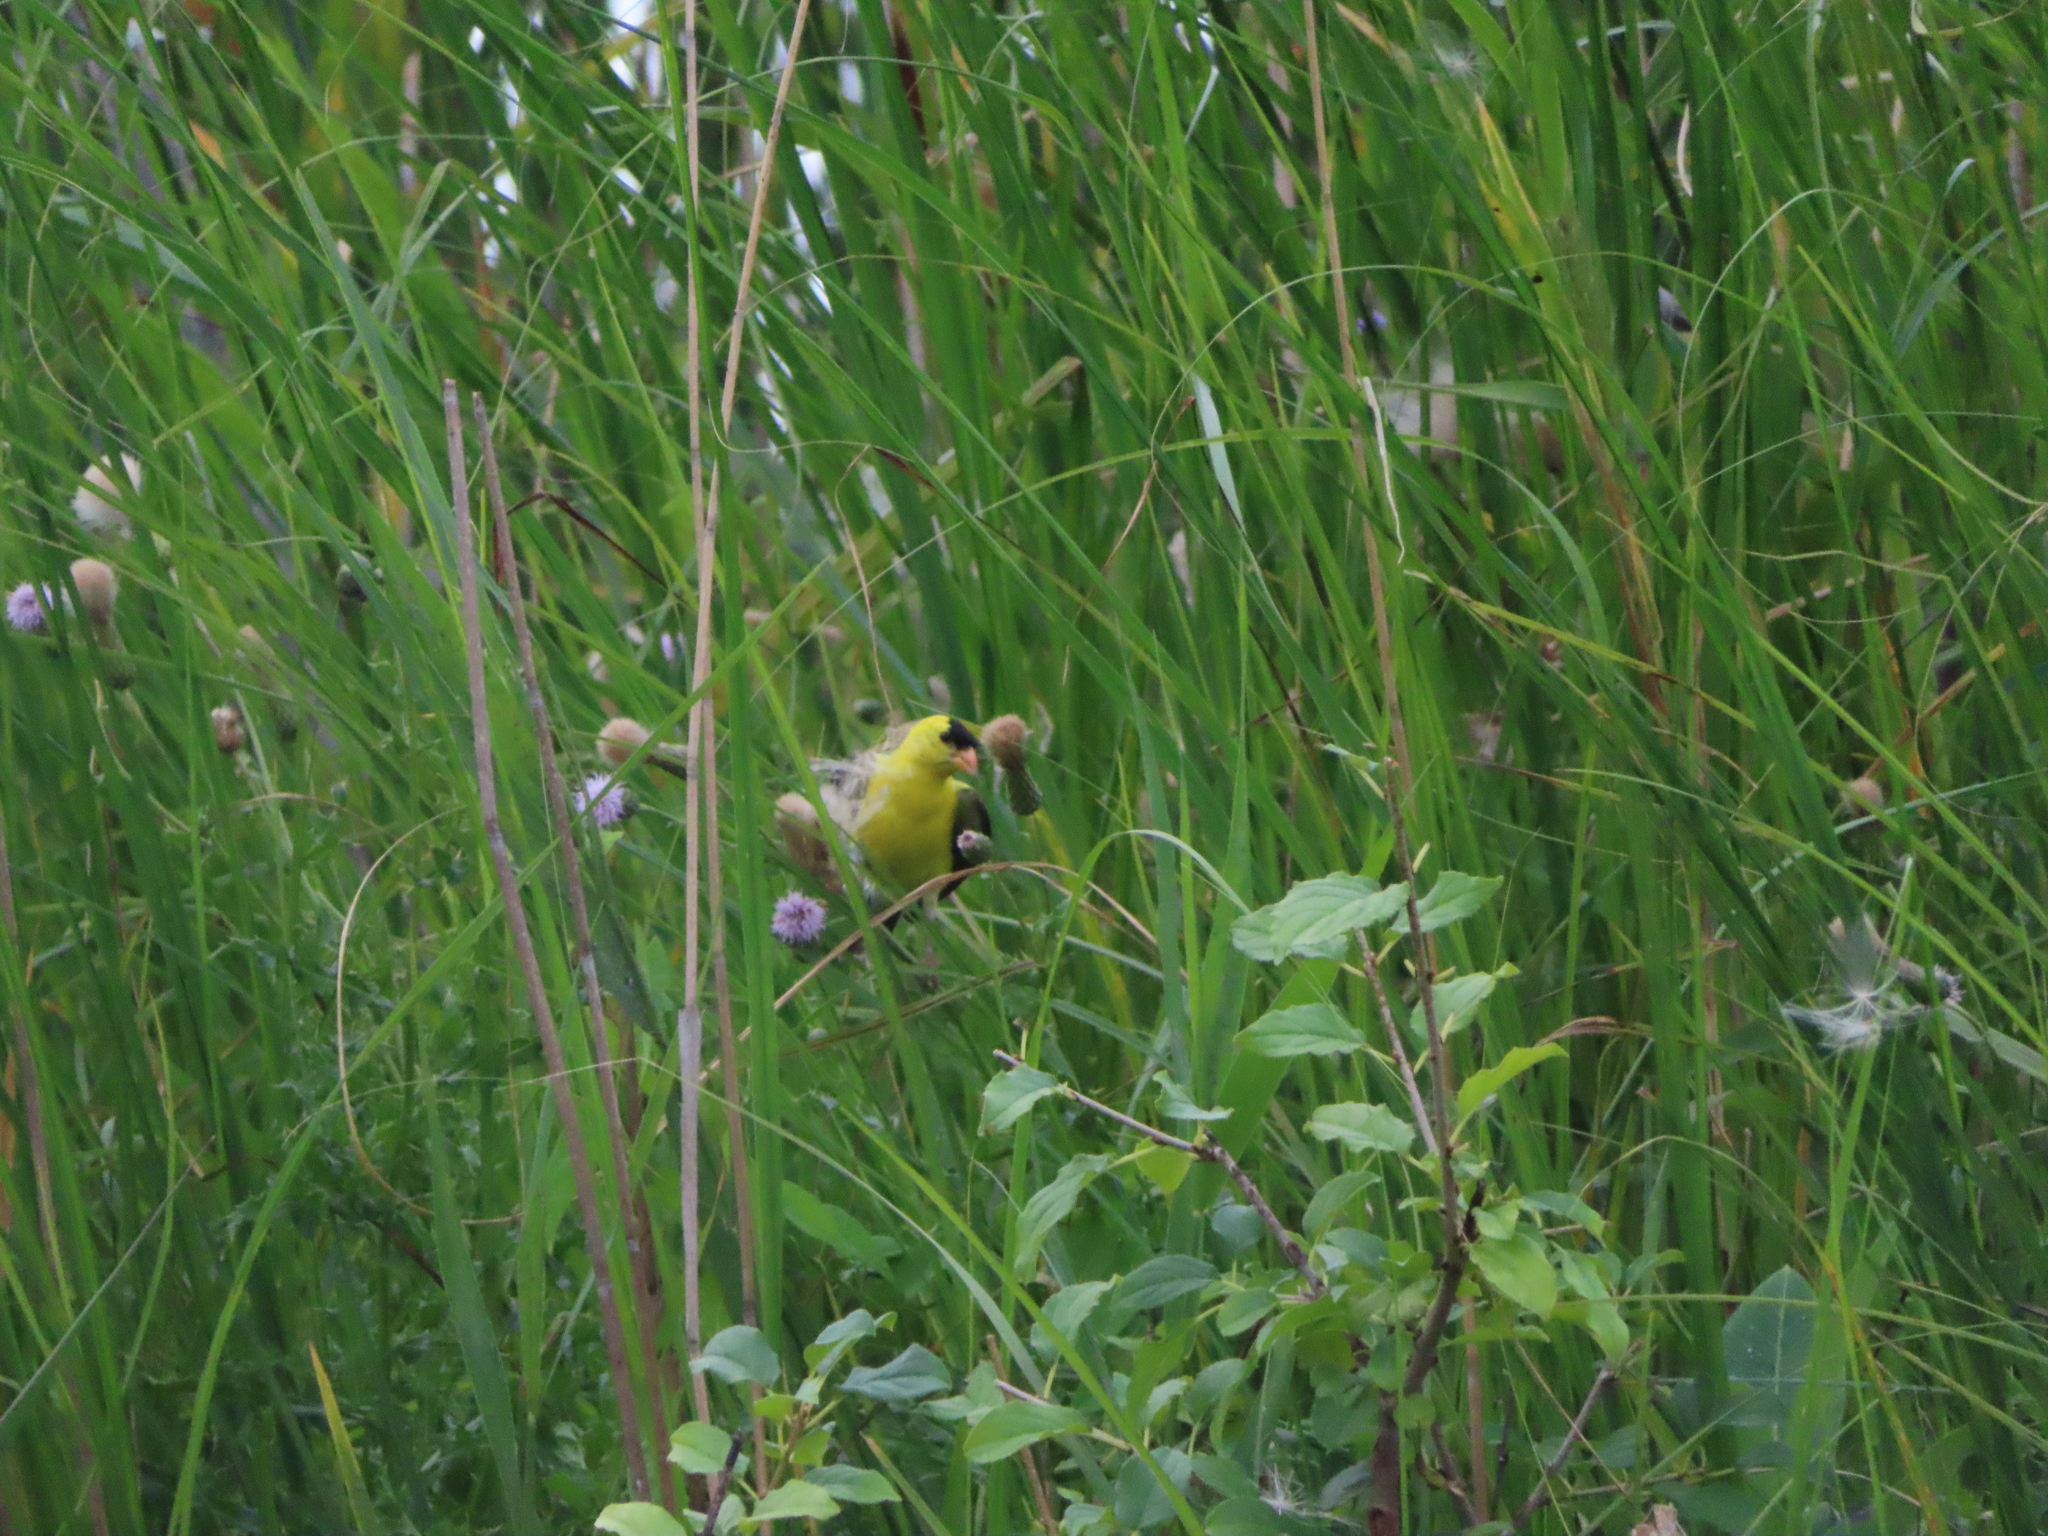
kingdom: Animalia
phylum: Chordata
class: Aves
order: Passeriformes
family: Fringillidae
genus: Spinus
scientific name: Spinus tristis
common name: American goldfinch
